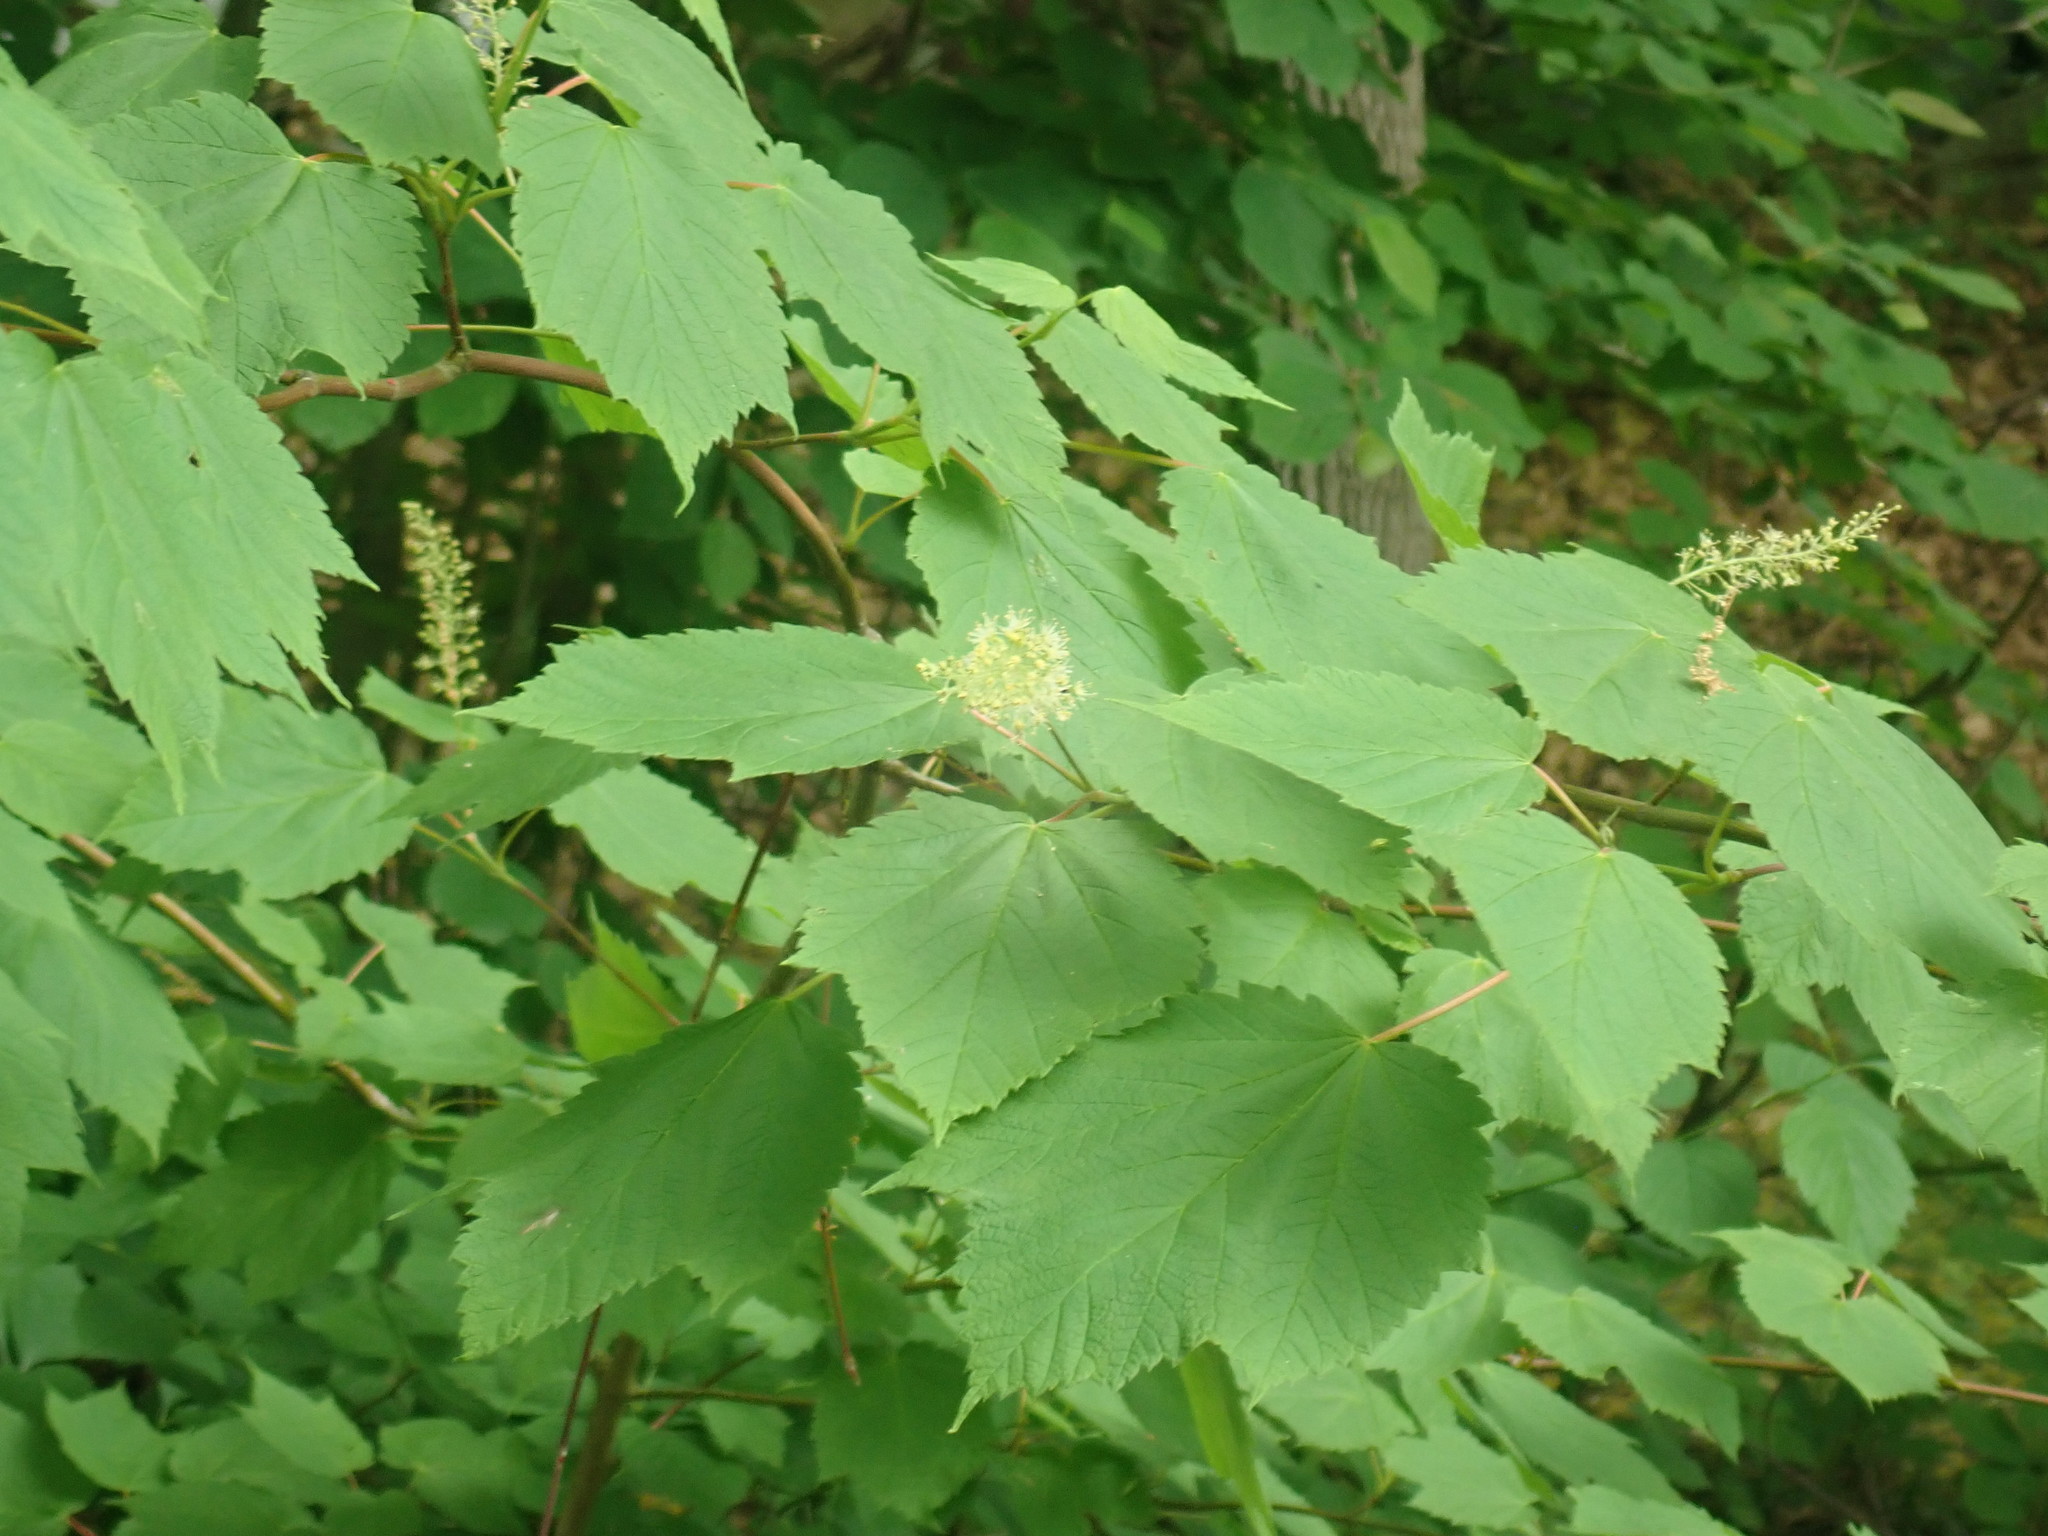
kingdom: Plantae
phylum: Tracheophyta
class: Magnoliopsida
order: Sapindales
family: Sapindaceae
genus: Acer
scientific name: Acer spicatum
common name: Mountain maple
